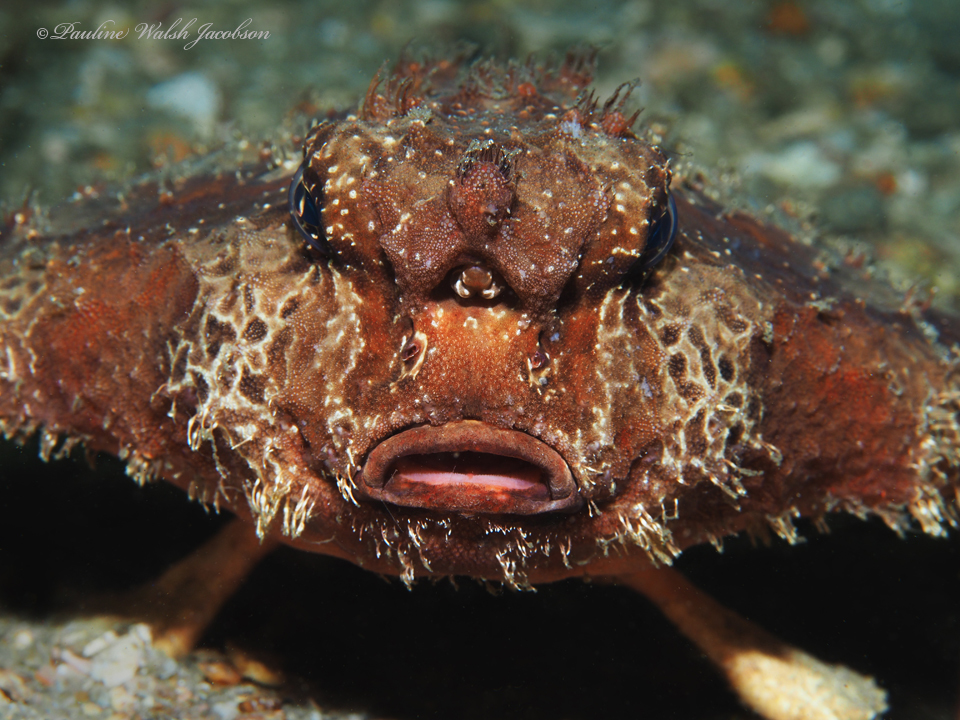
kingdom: Animalia
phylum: Chordata
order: Lophiiformes
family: Ogcocephalidae
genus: Ogcocephalus
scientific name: Ogcocephalus cubifrons
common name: Polka-dot batfish
